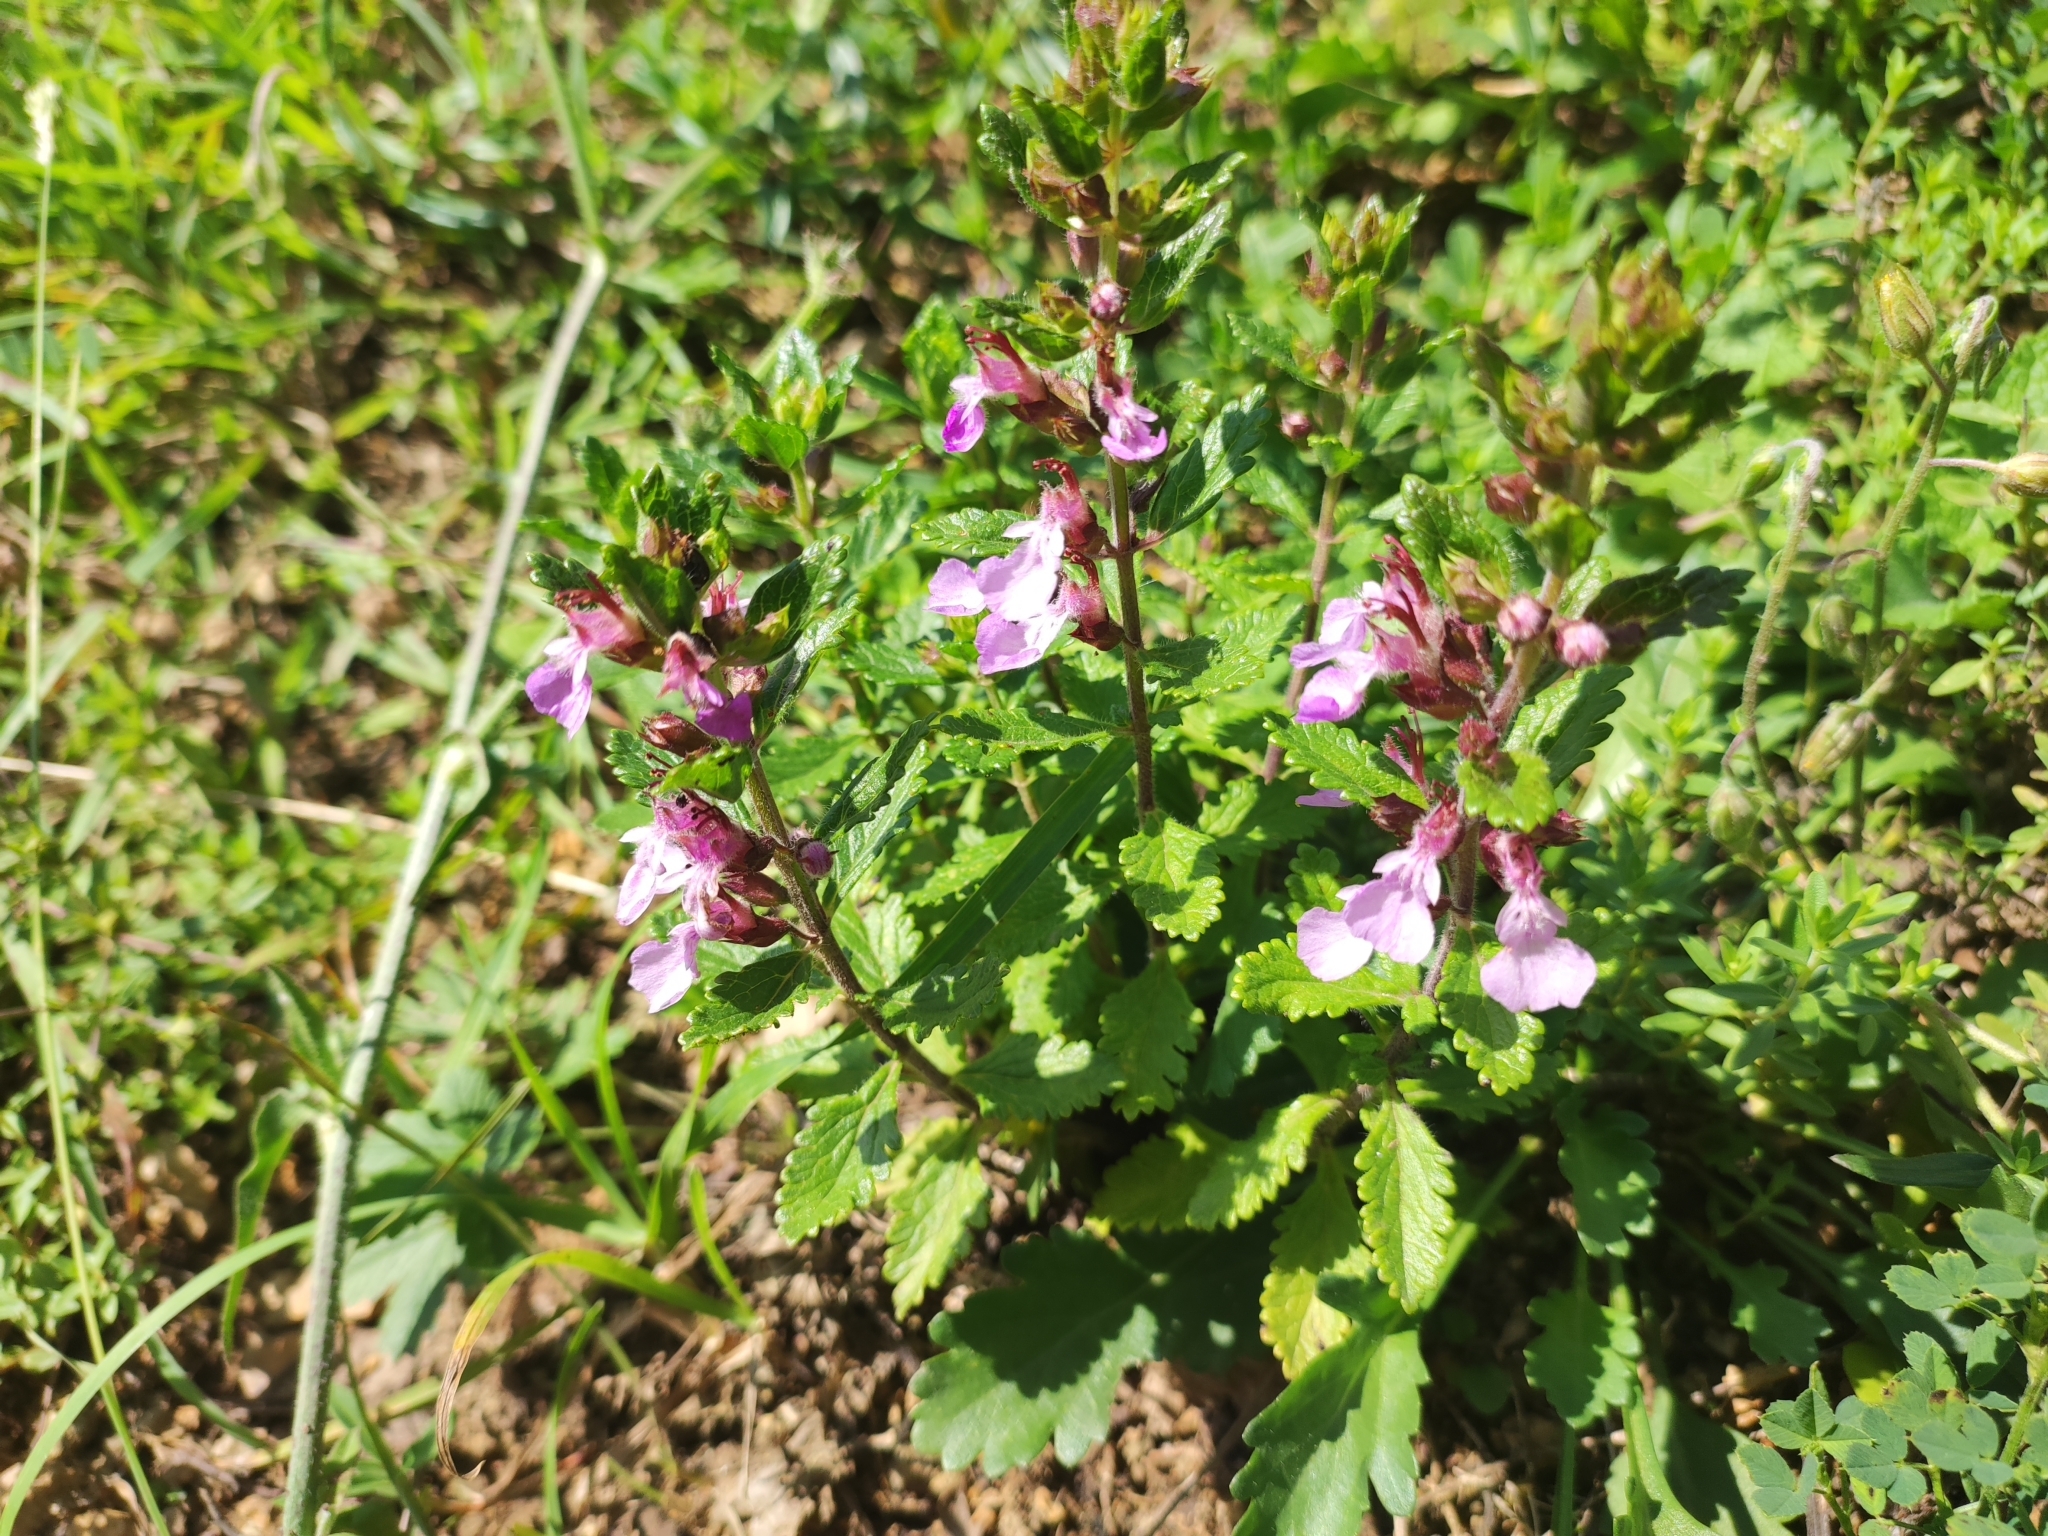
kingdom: Plantae
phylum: Tracheophyta
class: Magnoliopsida
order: Lamiales
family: Lamiaceae
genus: Teucrium
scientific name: Teucrium chamaedrys
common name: Wall germander
